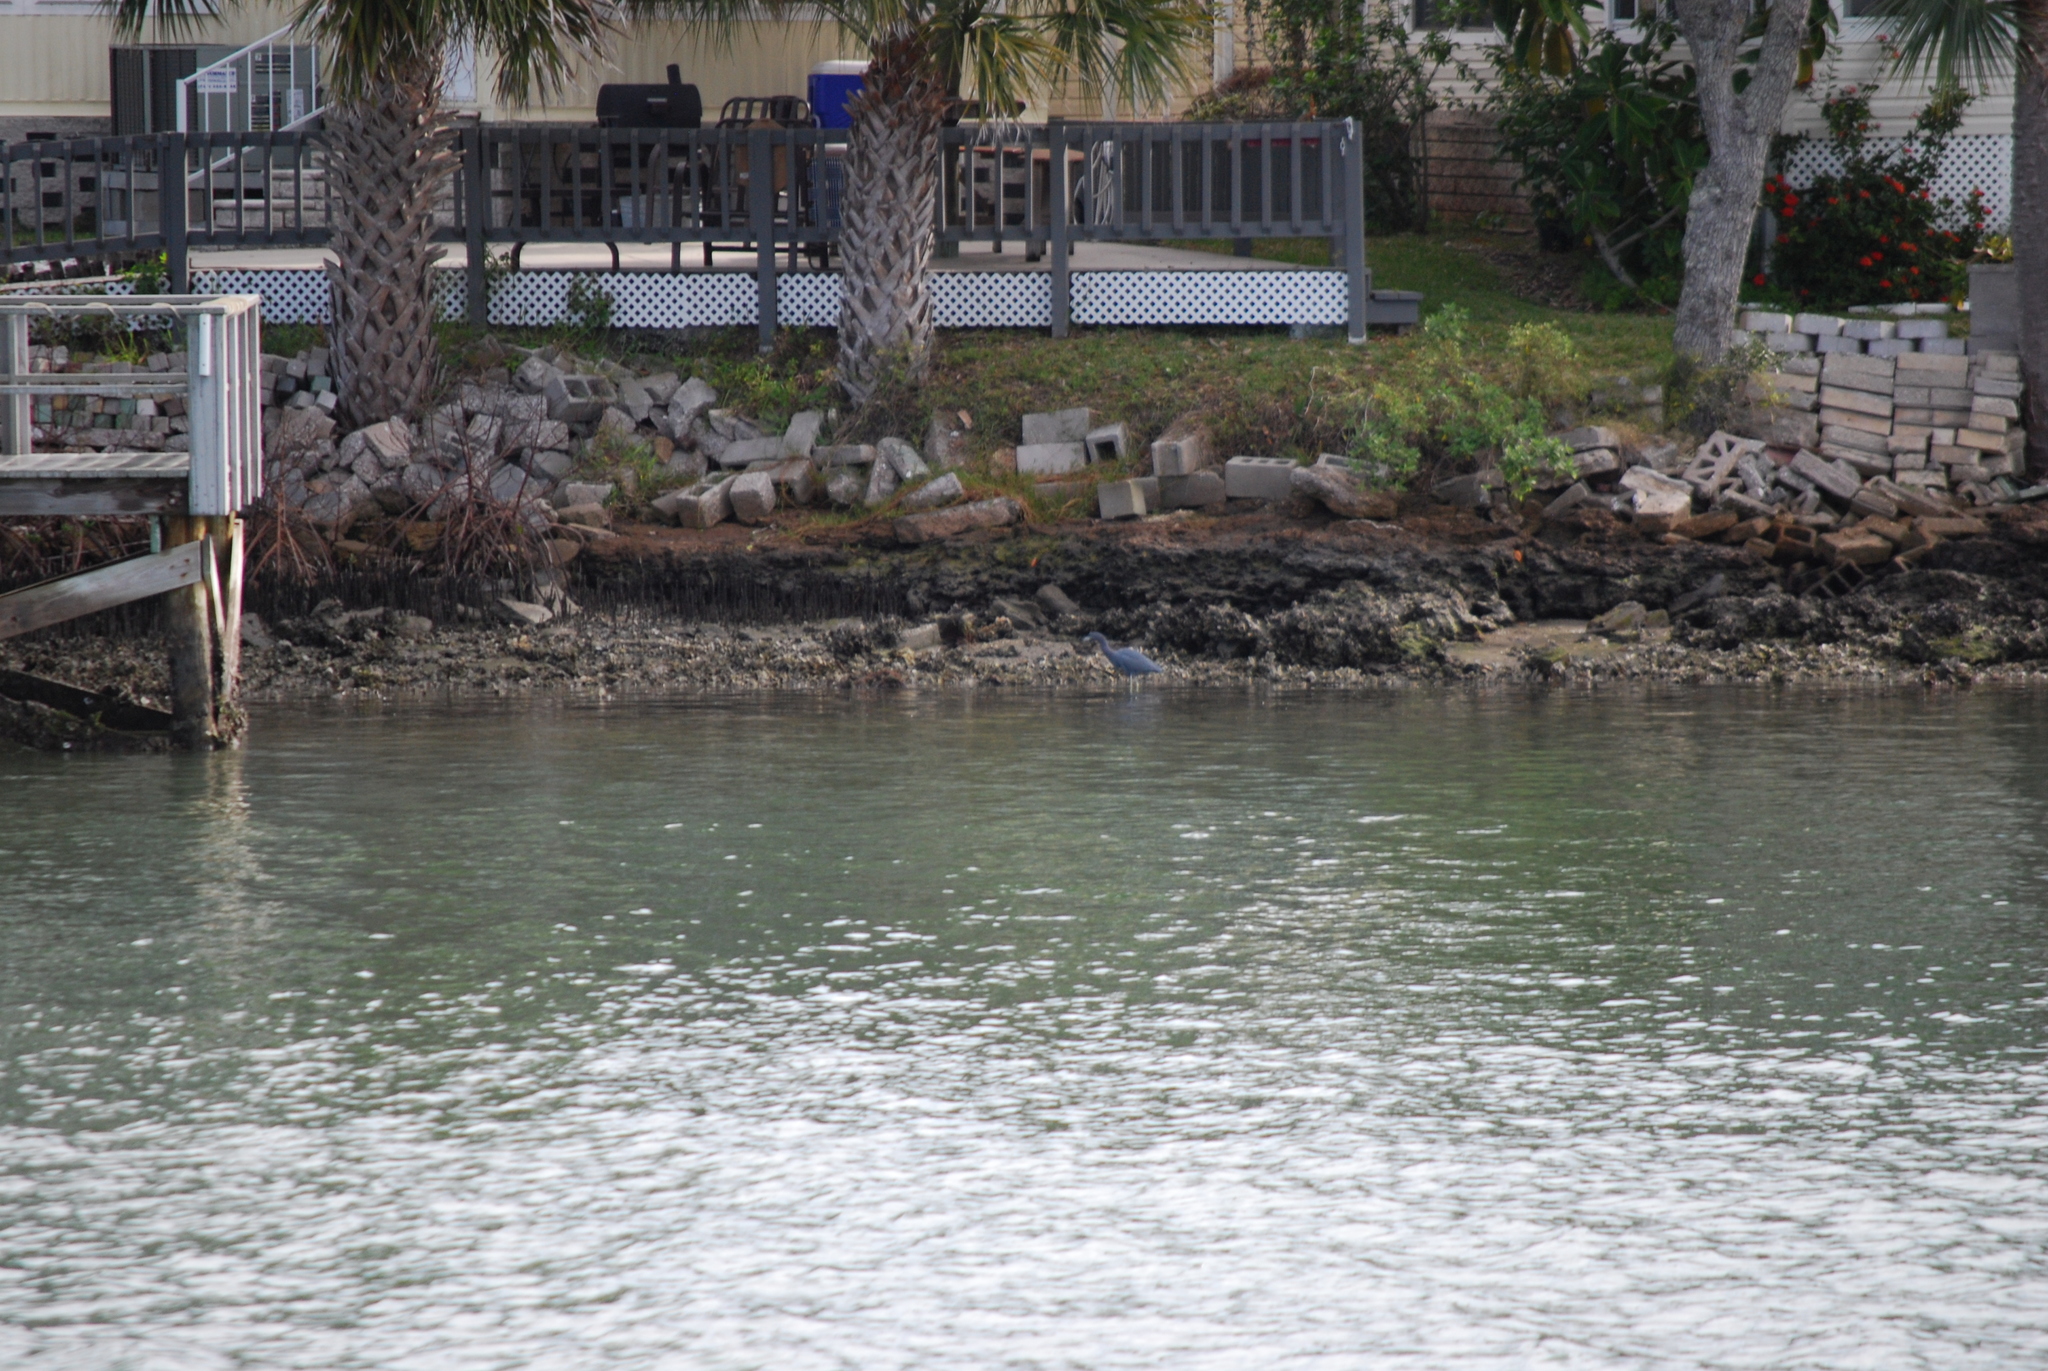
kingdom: Animalia
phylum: Chordata
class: Aves
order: Pelecaniformes
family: Ardeidae
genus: Egretta
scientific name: Egretta caerulea
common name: Little blue heron
